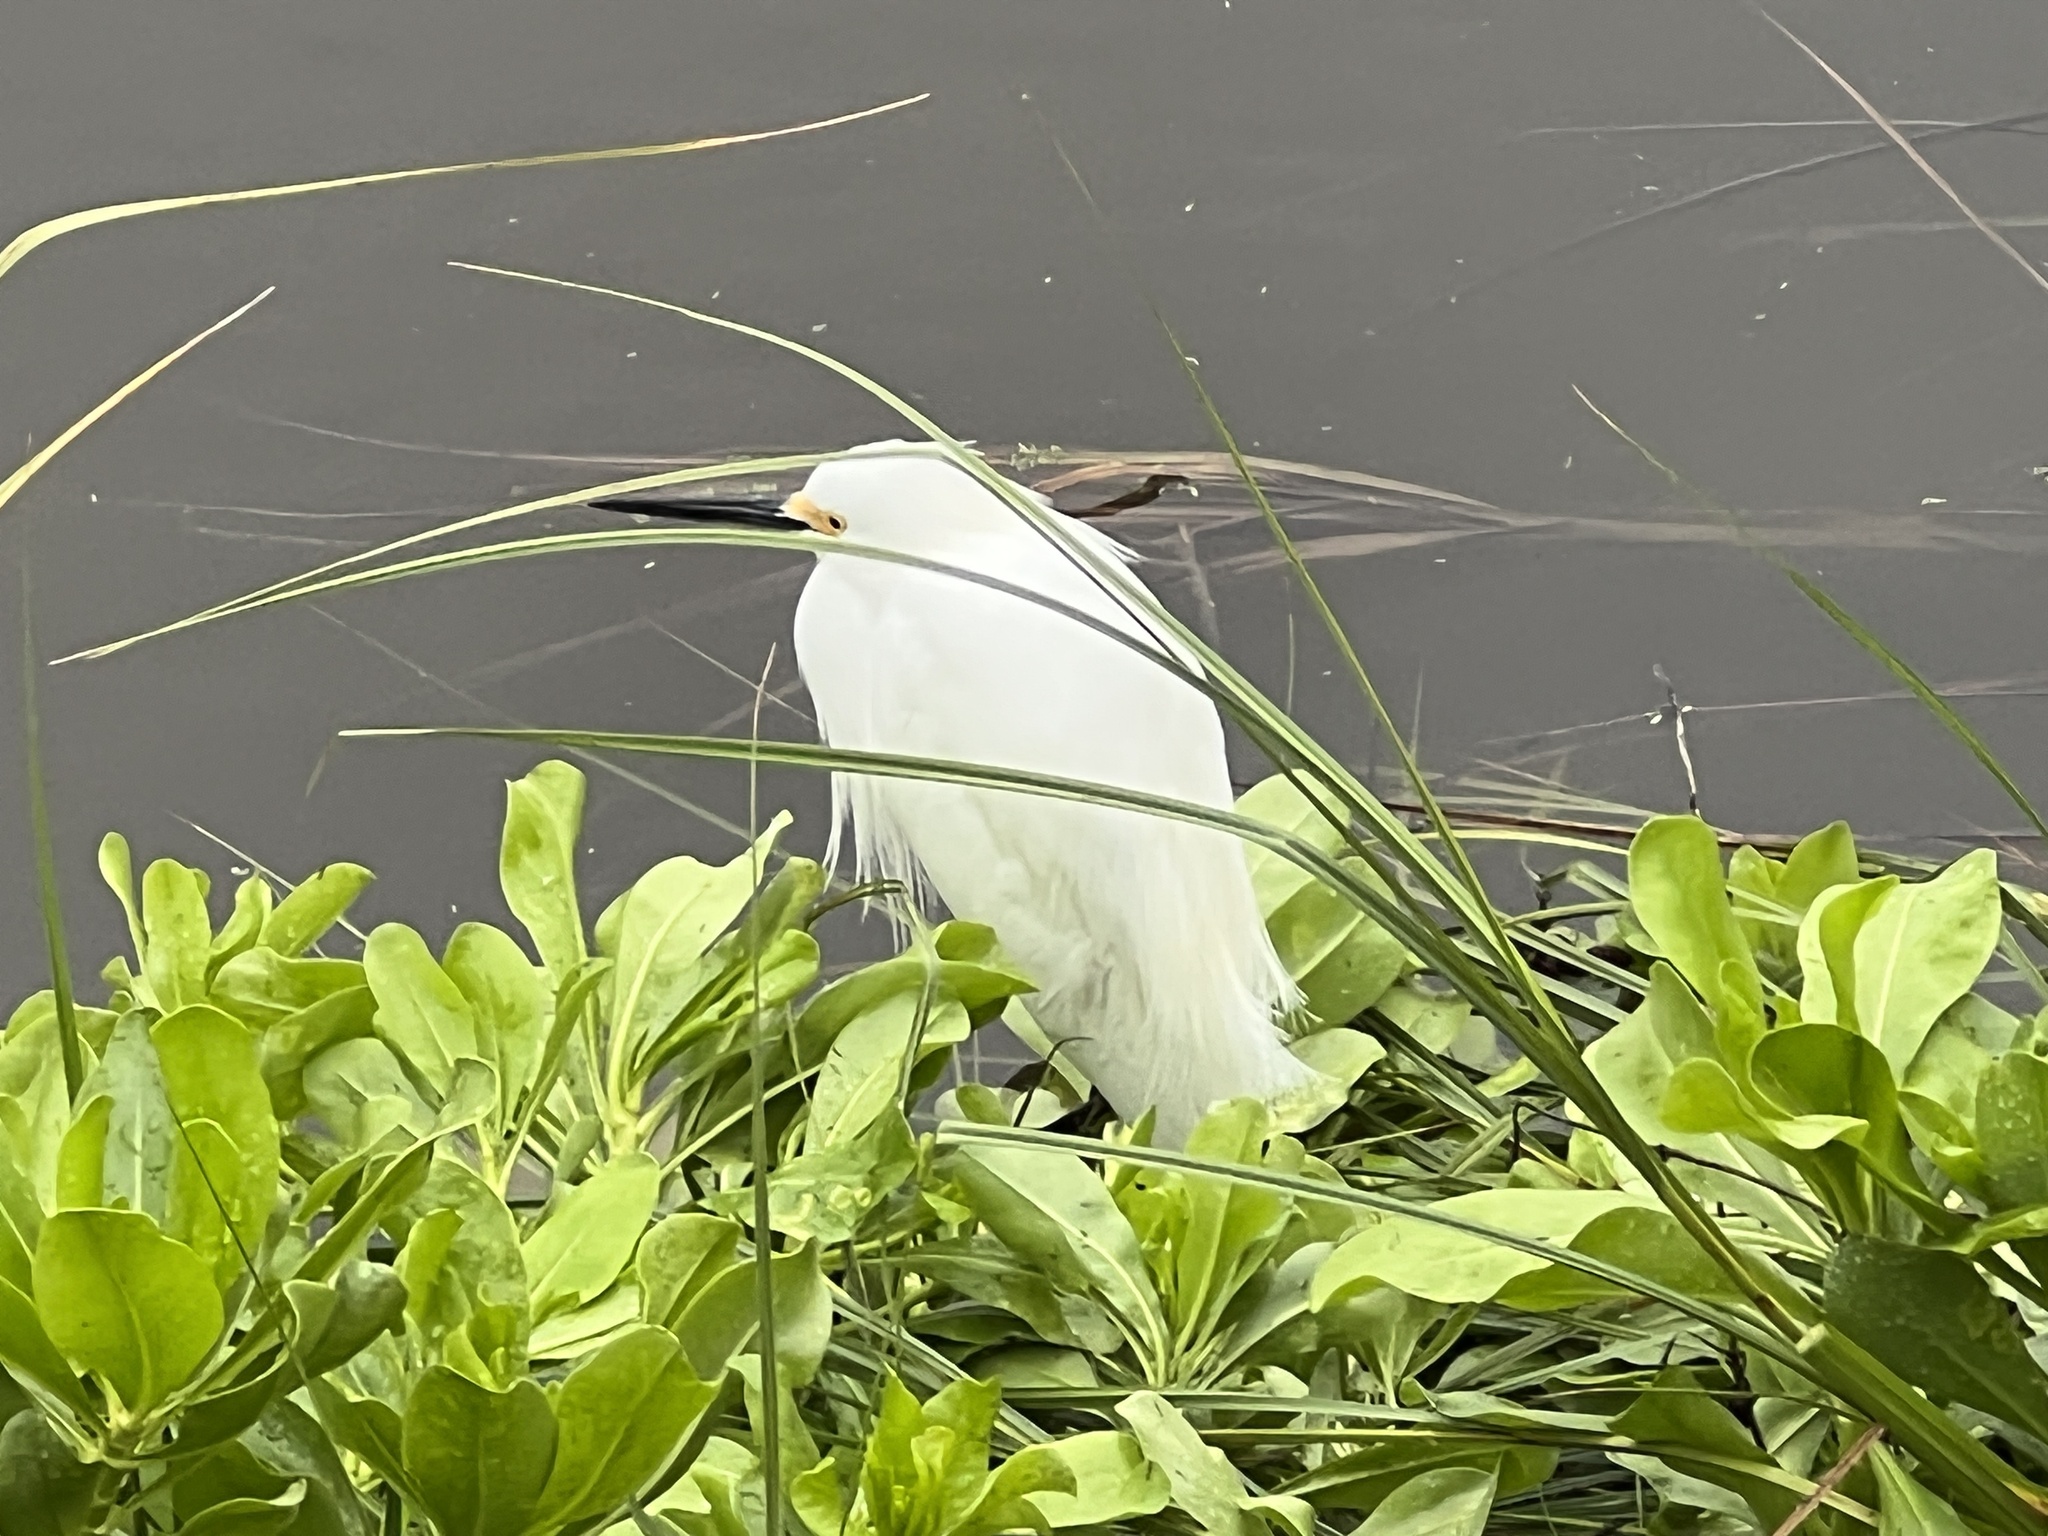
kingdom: Animalia
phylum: Chordata
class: Aves
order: Pelecaniformes
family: Ardeidae
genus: Egretta
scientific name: Egretta thula
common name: Snowy egret
